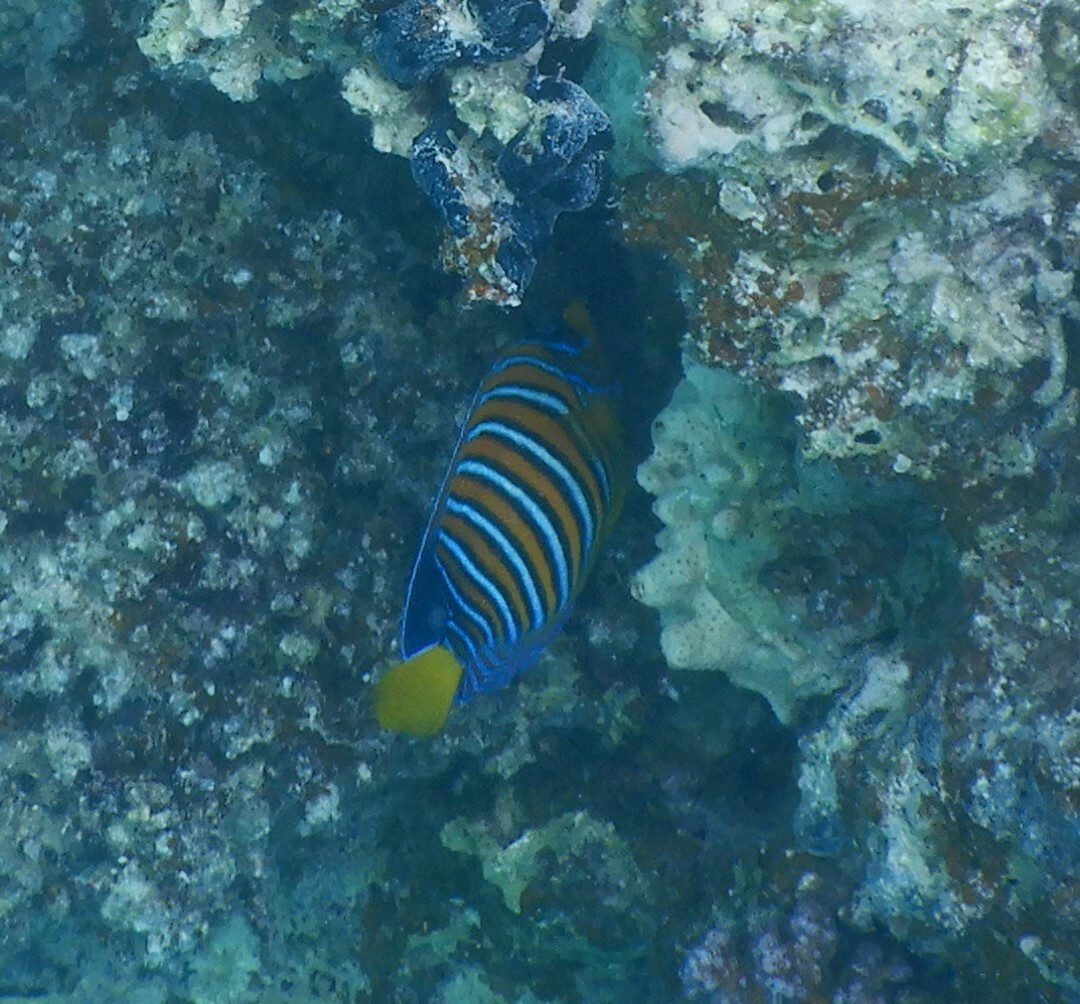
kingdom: Animalia
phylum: Chordata
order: Perciformes
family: Pomacanthidae
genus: Pygoplites
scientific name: Pygoplites diacanthus
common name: Regal angelfish
